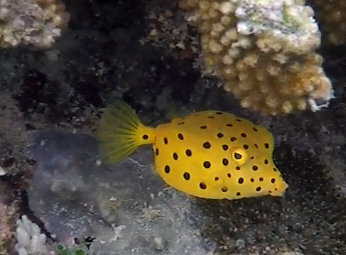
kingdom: Animalia
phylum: Chordata
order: Tetraodontiformes
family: Ostraciidae
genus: Ostracion
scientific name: Ostracion cubicus
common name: Cube trunkfish
